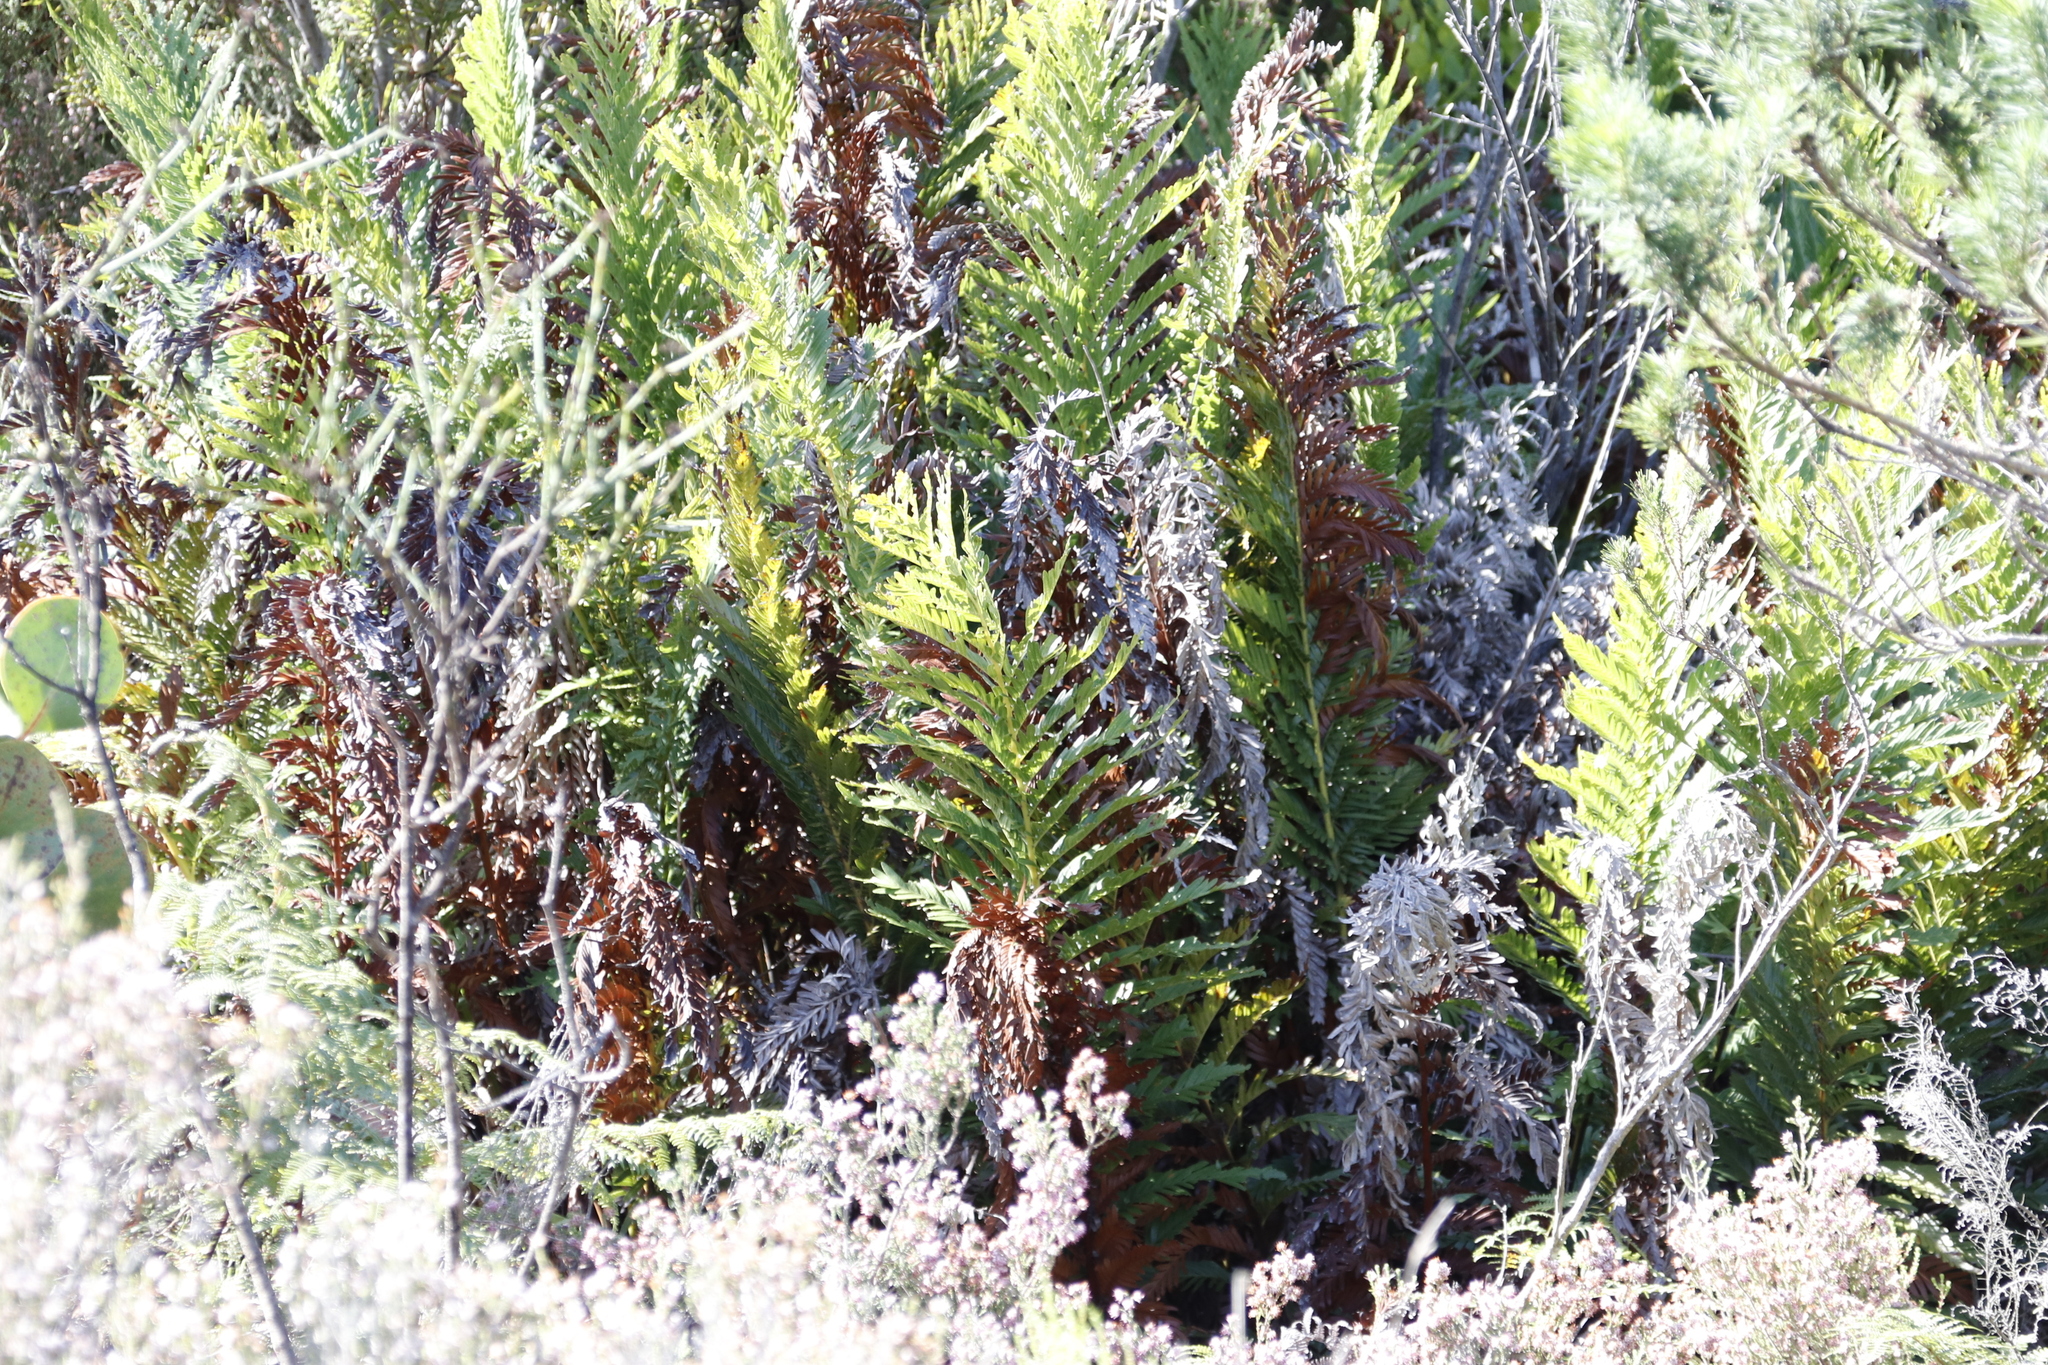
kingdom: Plantae
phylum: Tracheophyta
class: Polypodiopsida
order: Osmundales
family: Osmundaceae
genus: Todea
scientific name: Todea barbara
